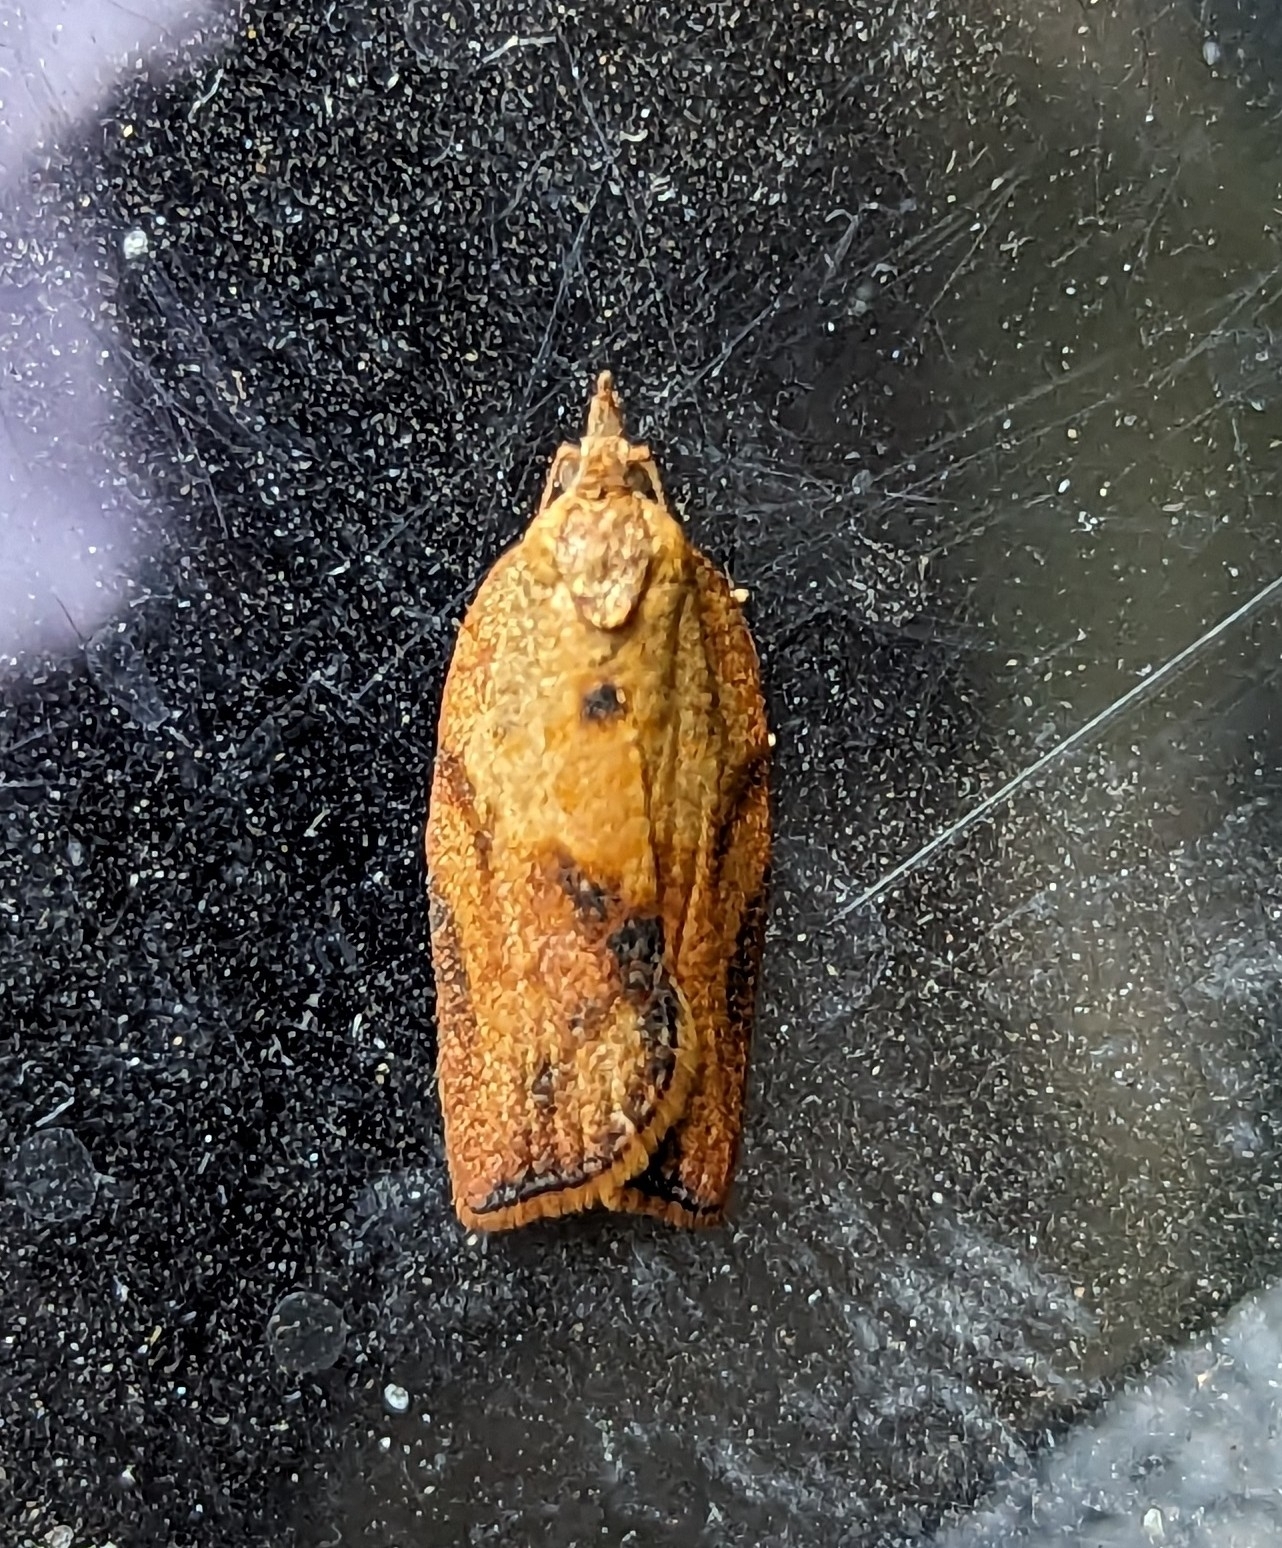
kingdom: Animalia
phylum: Arthropoda
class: Insecta
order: Lepidoptera
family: Tortricidae
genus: Epiphyas
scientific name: Epiphyas postvittana
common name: Light brown apple moth
